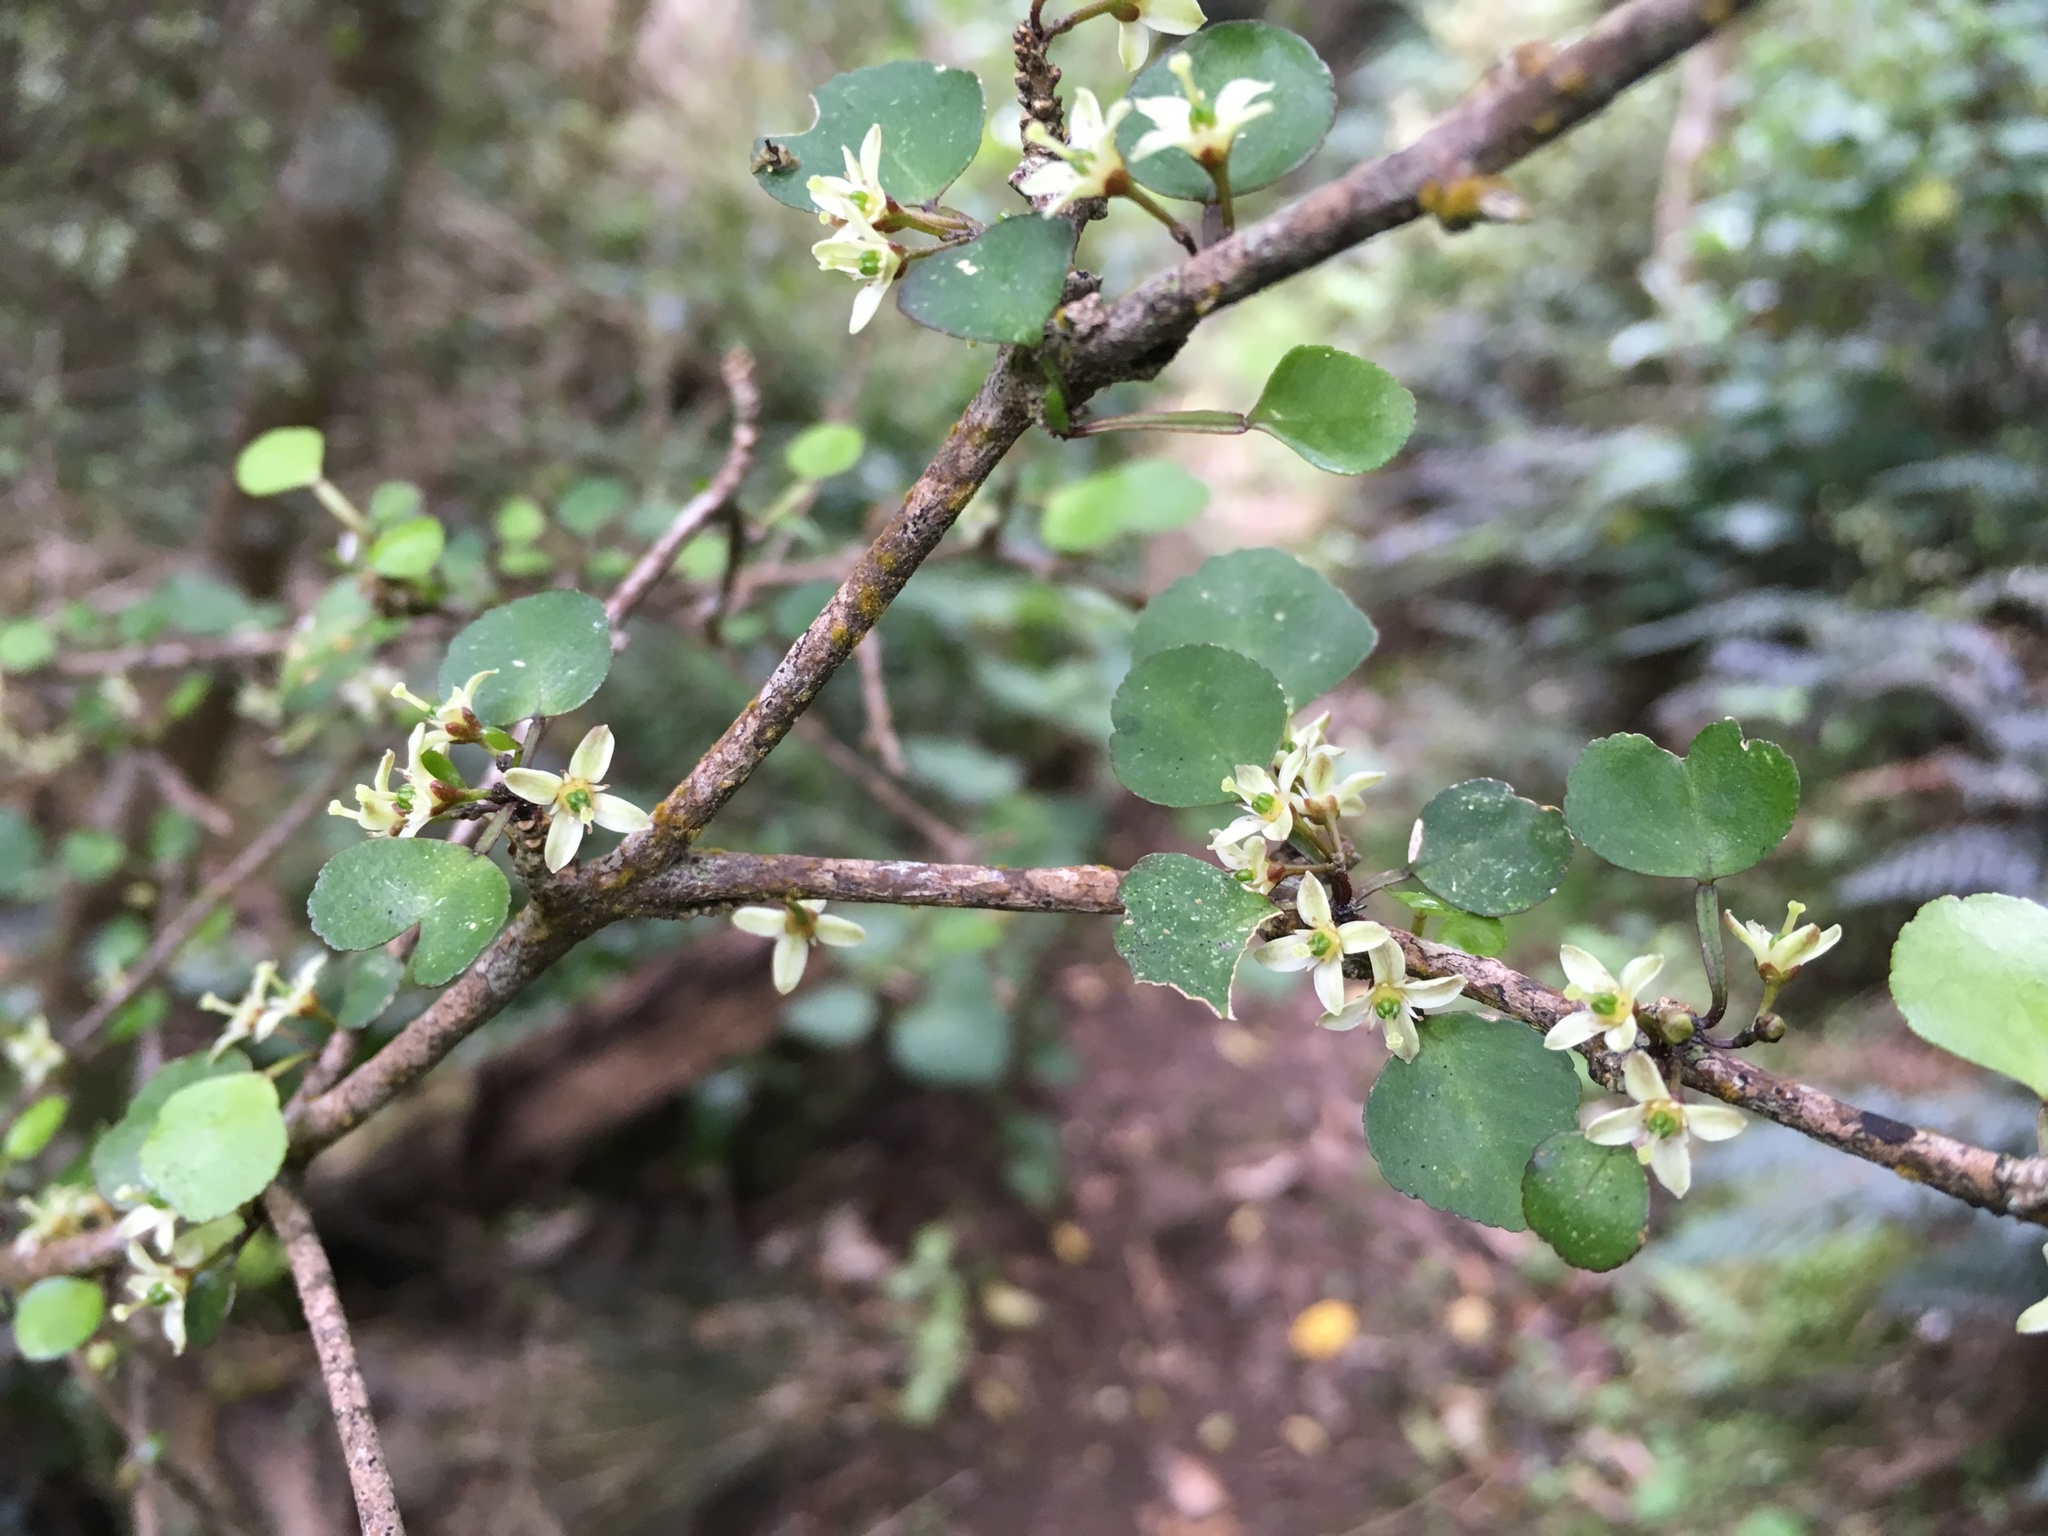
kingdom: Plantae
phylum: Tracheophyta
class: Magnoliopsida
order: Sapindales
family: Rutaceae
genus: Melicope
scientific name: Melicope simplex
